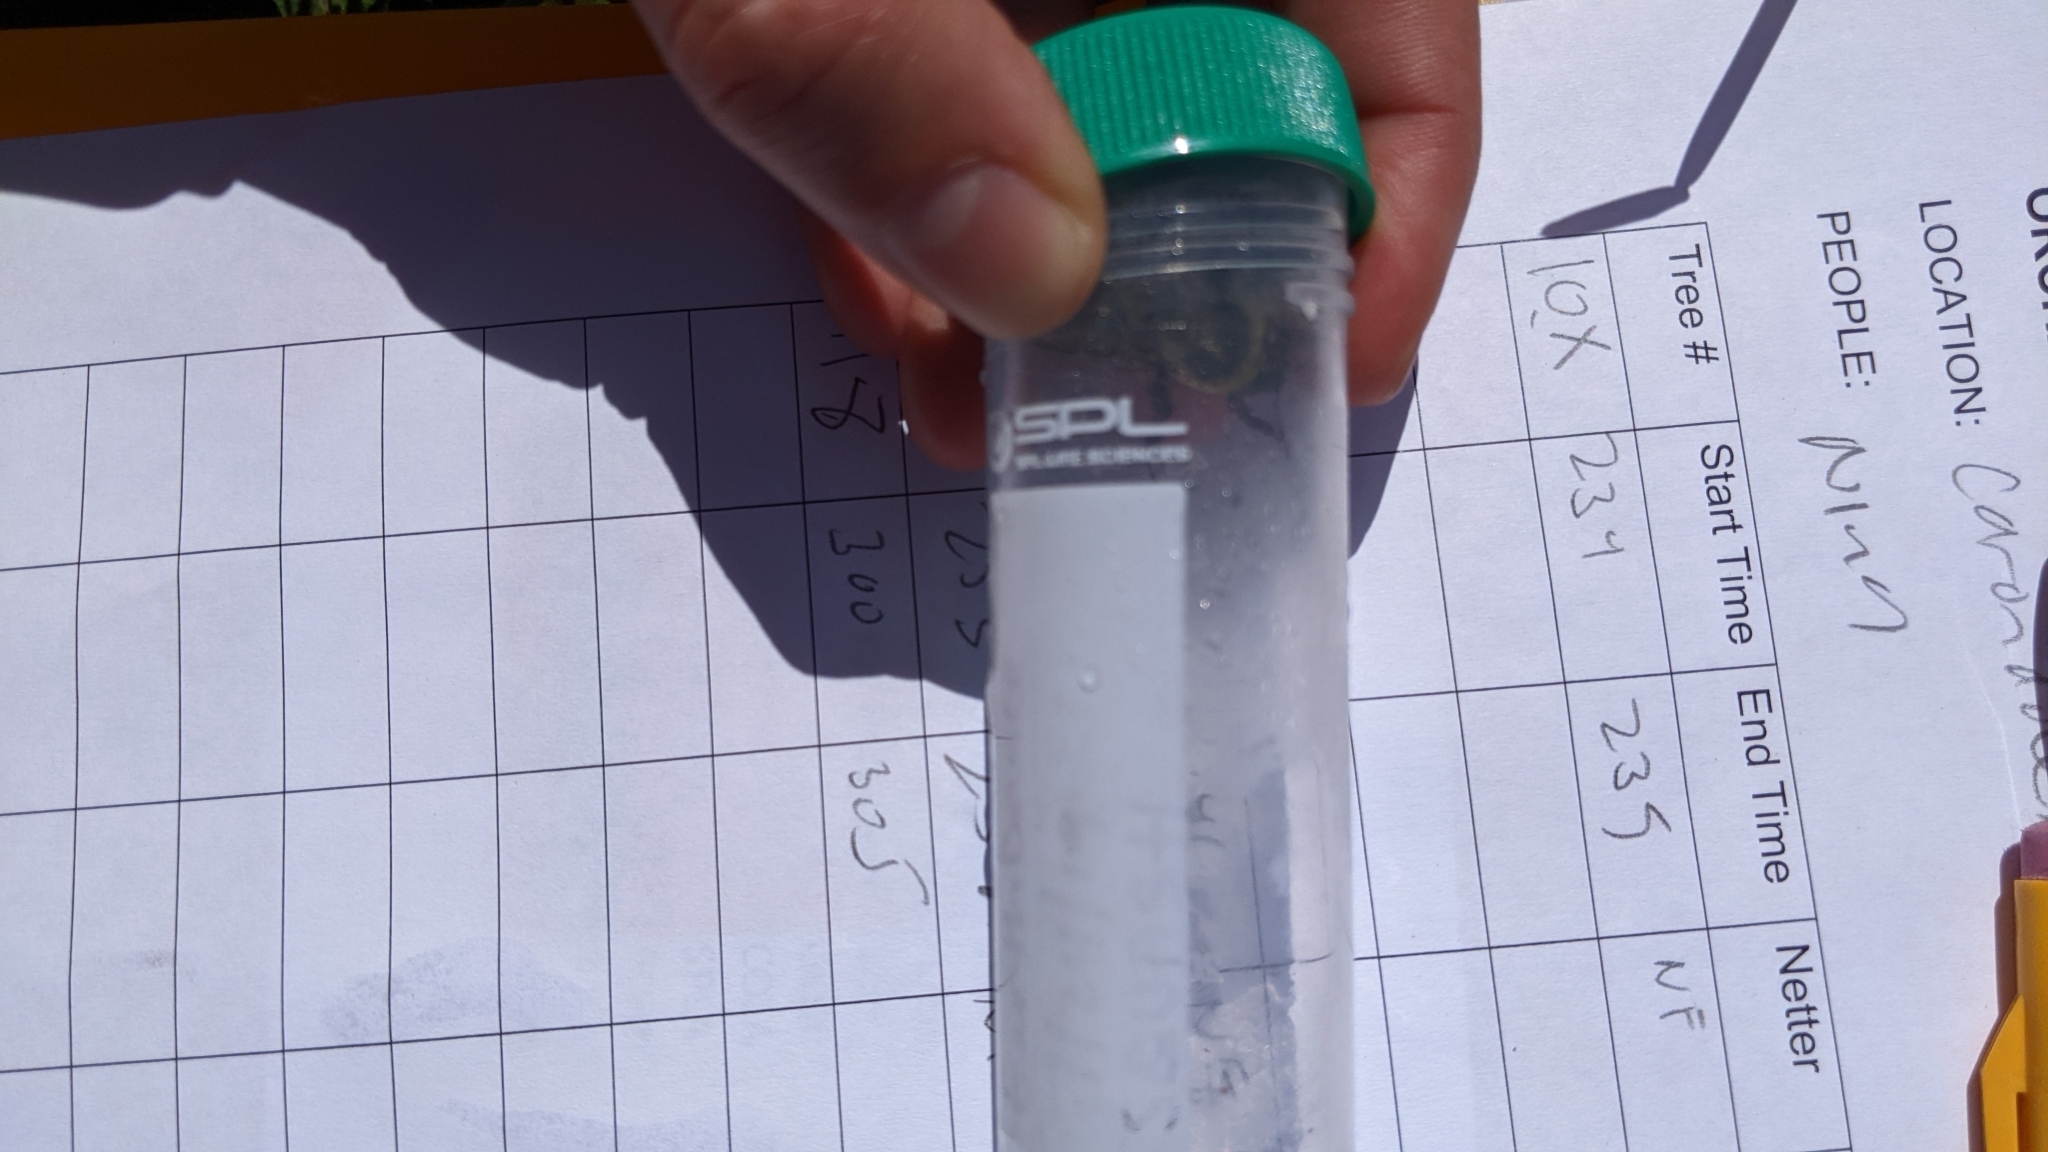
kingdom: Animalia
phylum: Arthropoda
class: Insecta
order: Hymenoptera
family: Apidae
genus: Bombus
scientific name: Bombus impatiens
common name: Common eastern bumble bee
